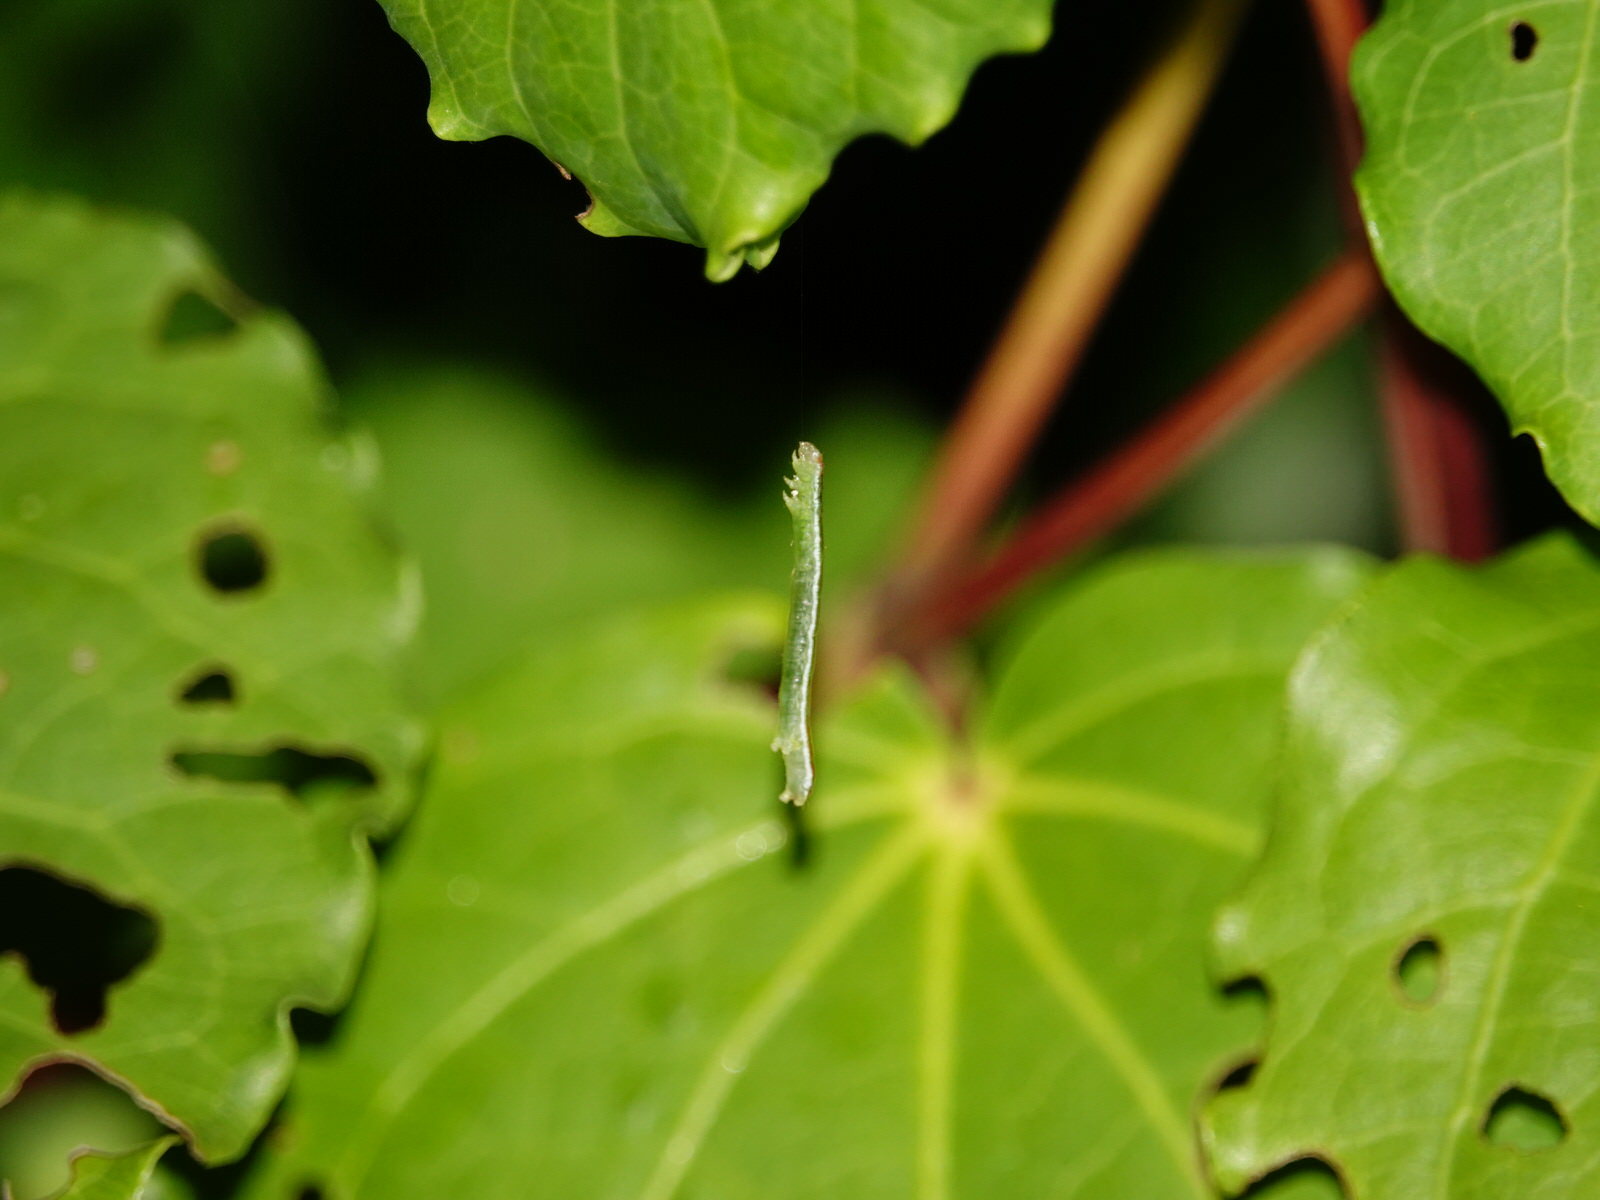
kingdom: Animalia
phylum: Arthropoda
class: Insecta
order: Lepidoptera
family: Geometridae
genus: Cleora
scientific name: Cleora scriptaria
